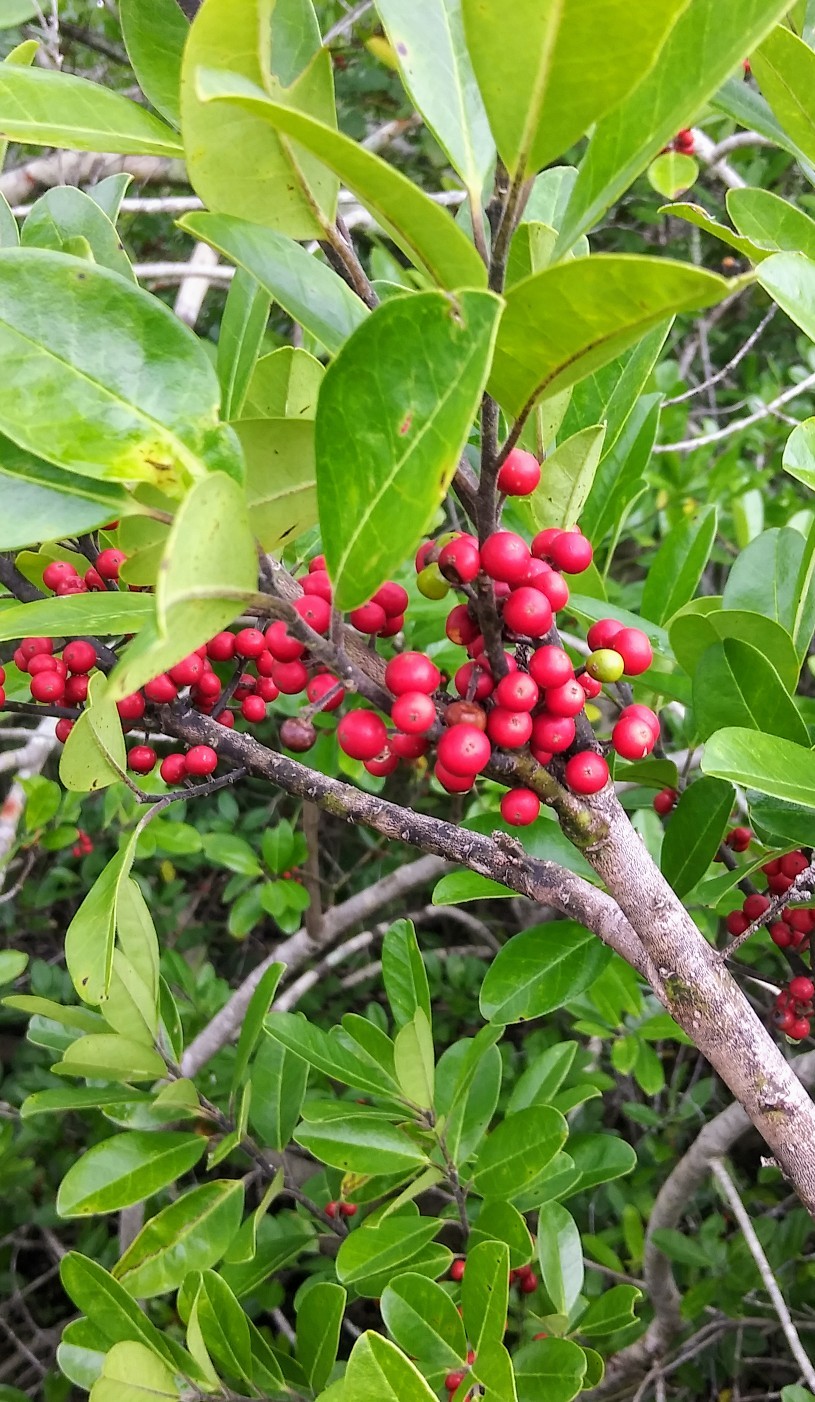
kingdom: Plantae
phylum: Tracheophyta
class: Magnoliopsida
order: Aquifoliales
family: Aquifoliaceae
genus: Ilex
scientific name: Ilex cassine
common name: Dahoon
